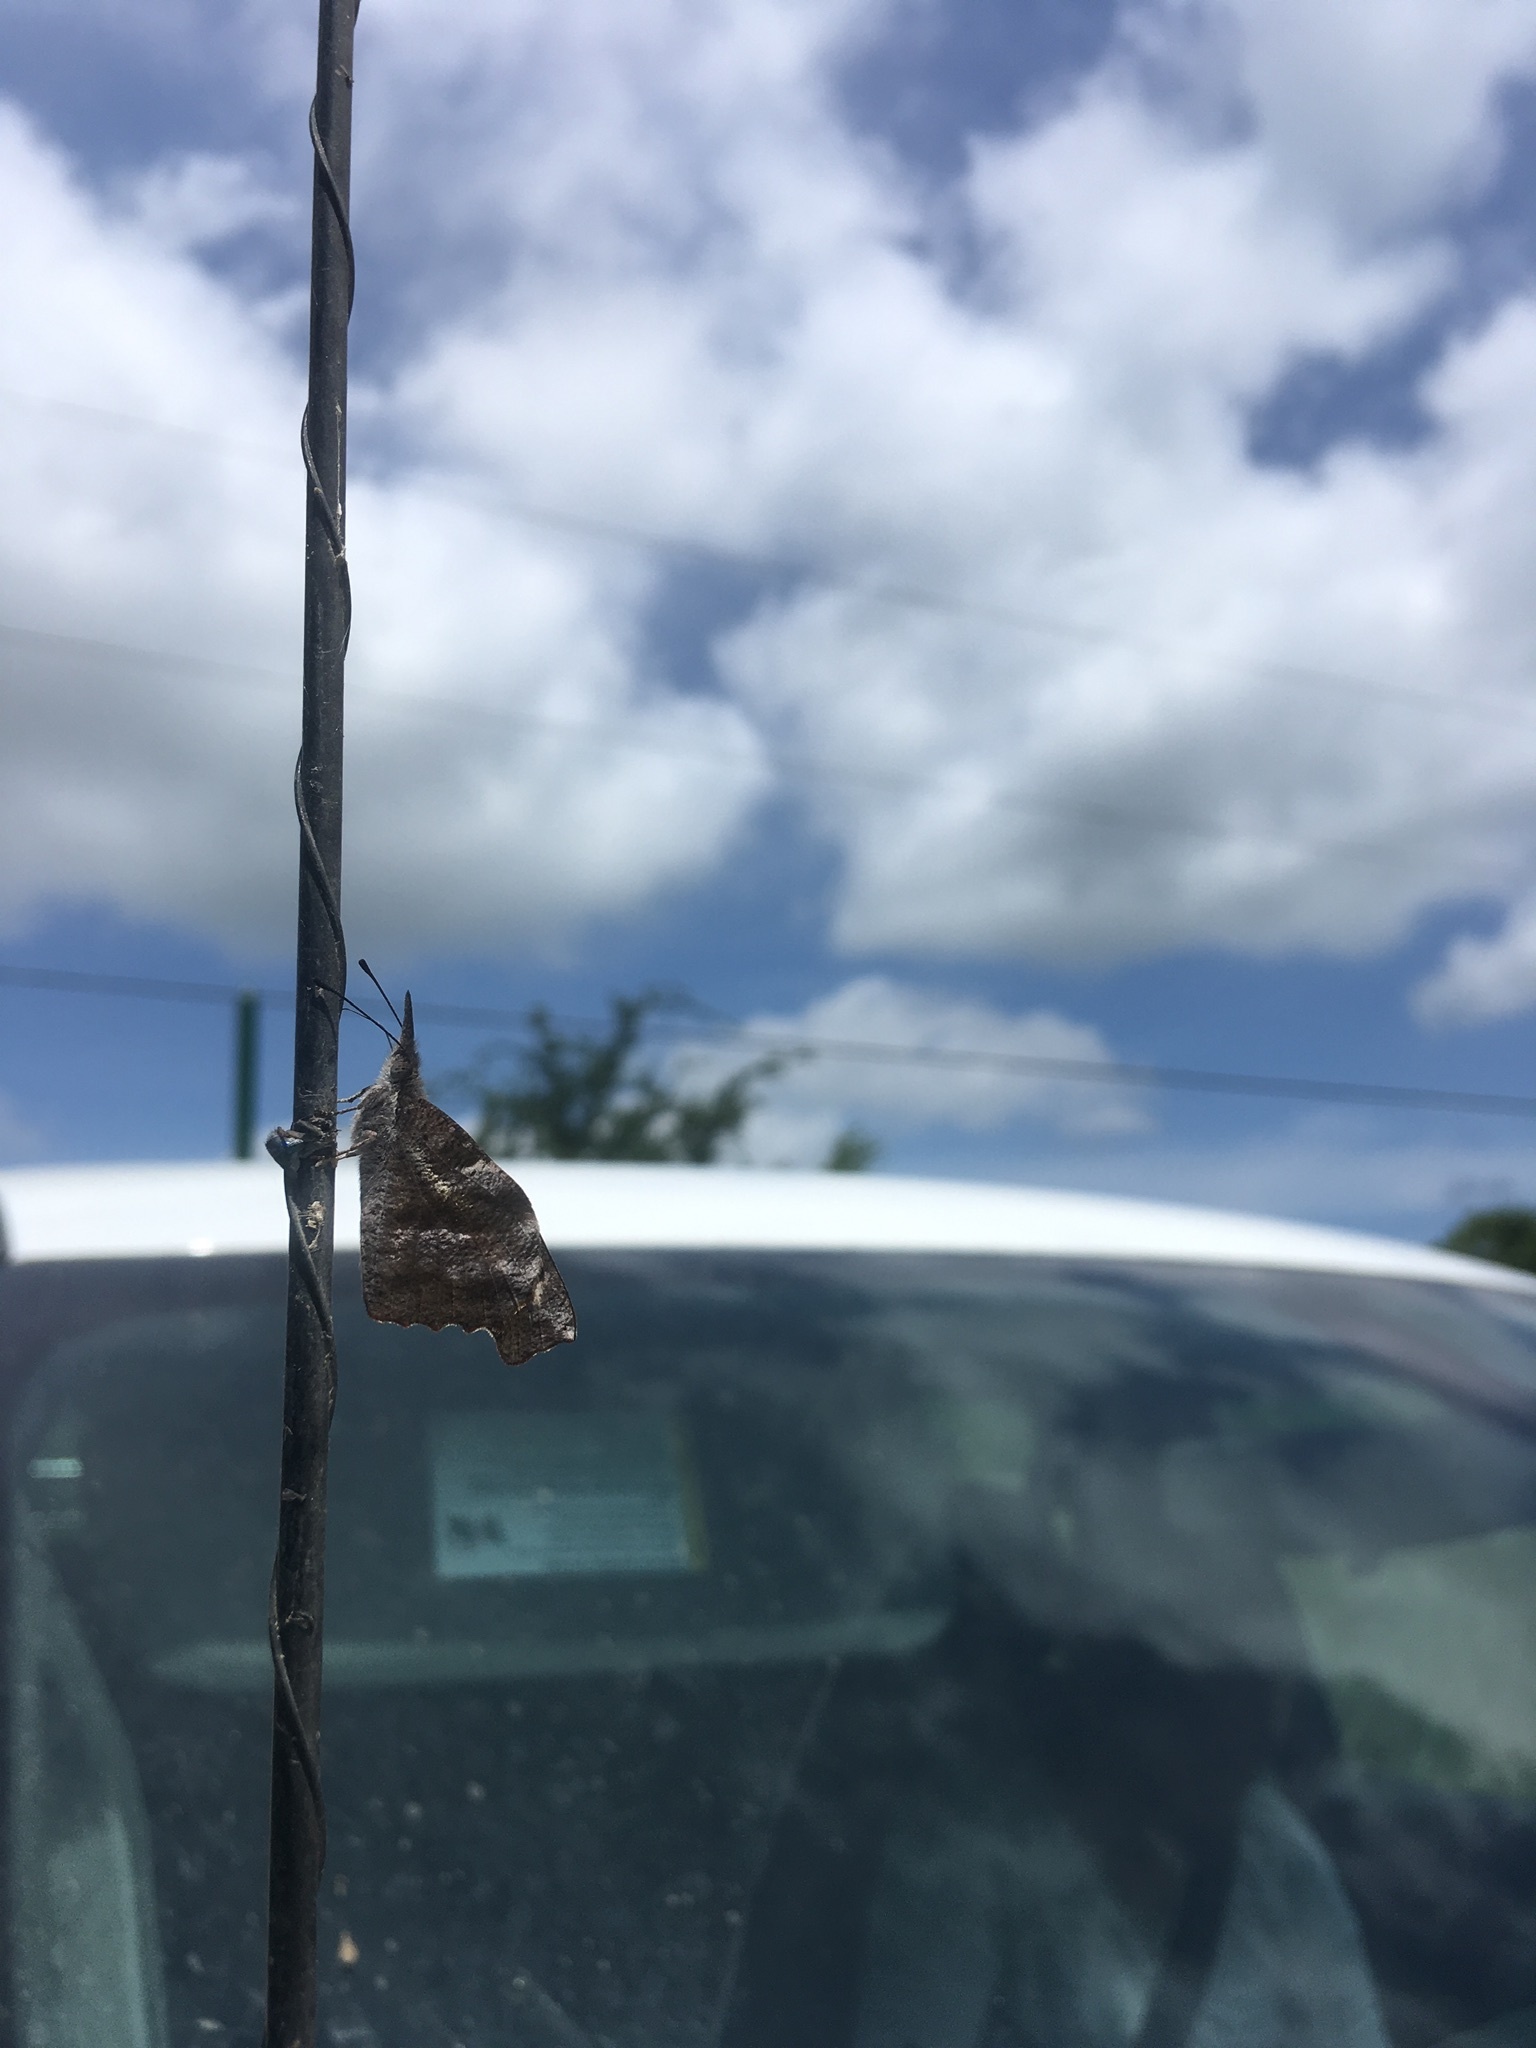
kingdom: Animalia
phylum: Arthropoda
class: Insecta
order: Lepidoptera
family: Nymphalidae
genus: Libytheana
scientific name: Libytheana carinenta
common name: American snout
